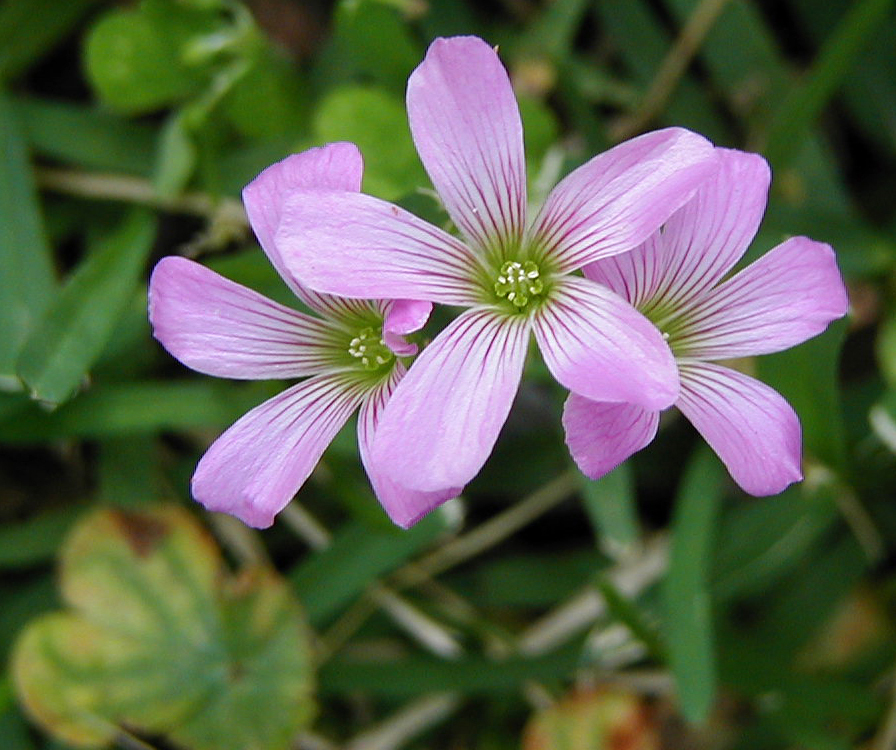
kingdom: Plantae
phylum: Tracheophyta
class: Magnoliopsida
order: Oxalidales
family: Oxalidaceae
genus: Oxalis
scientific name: Oxalis debilis
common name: Large-flowered pink-sorrel
